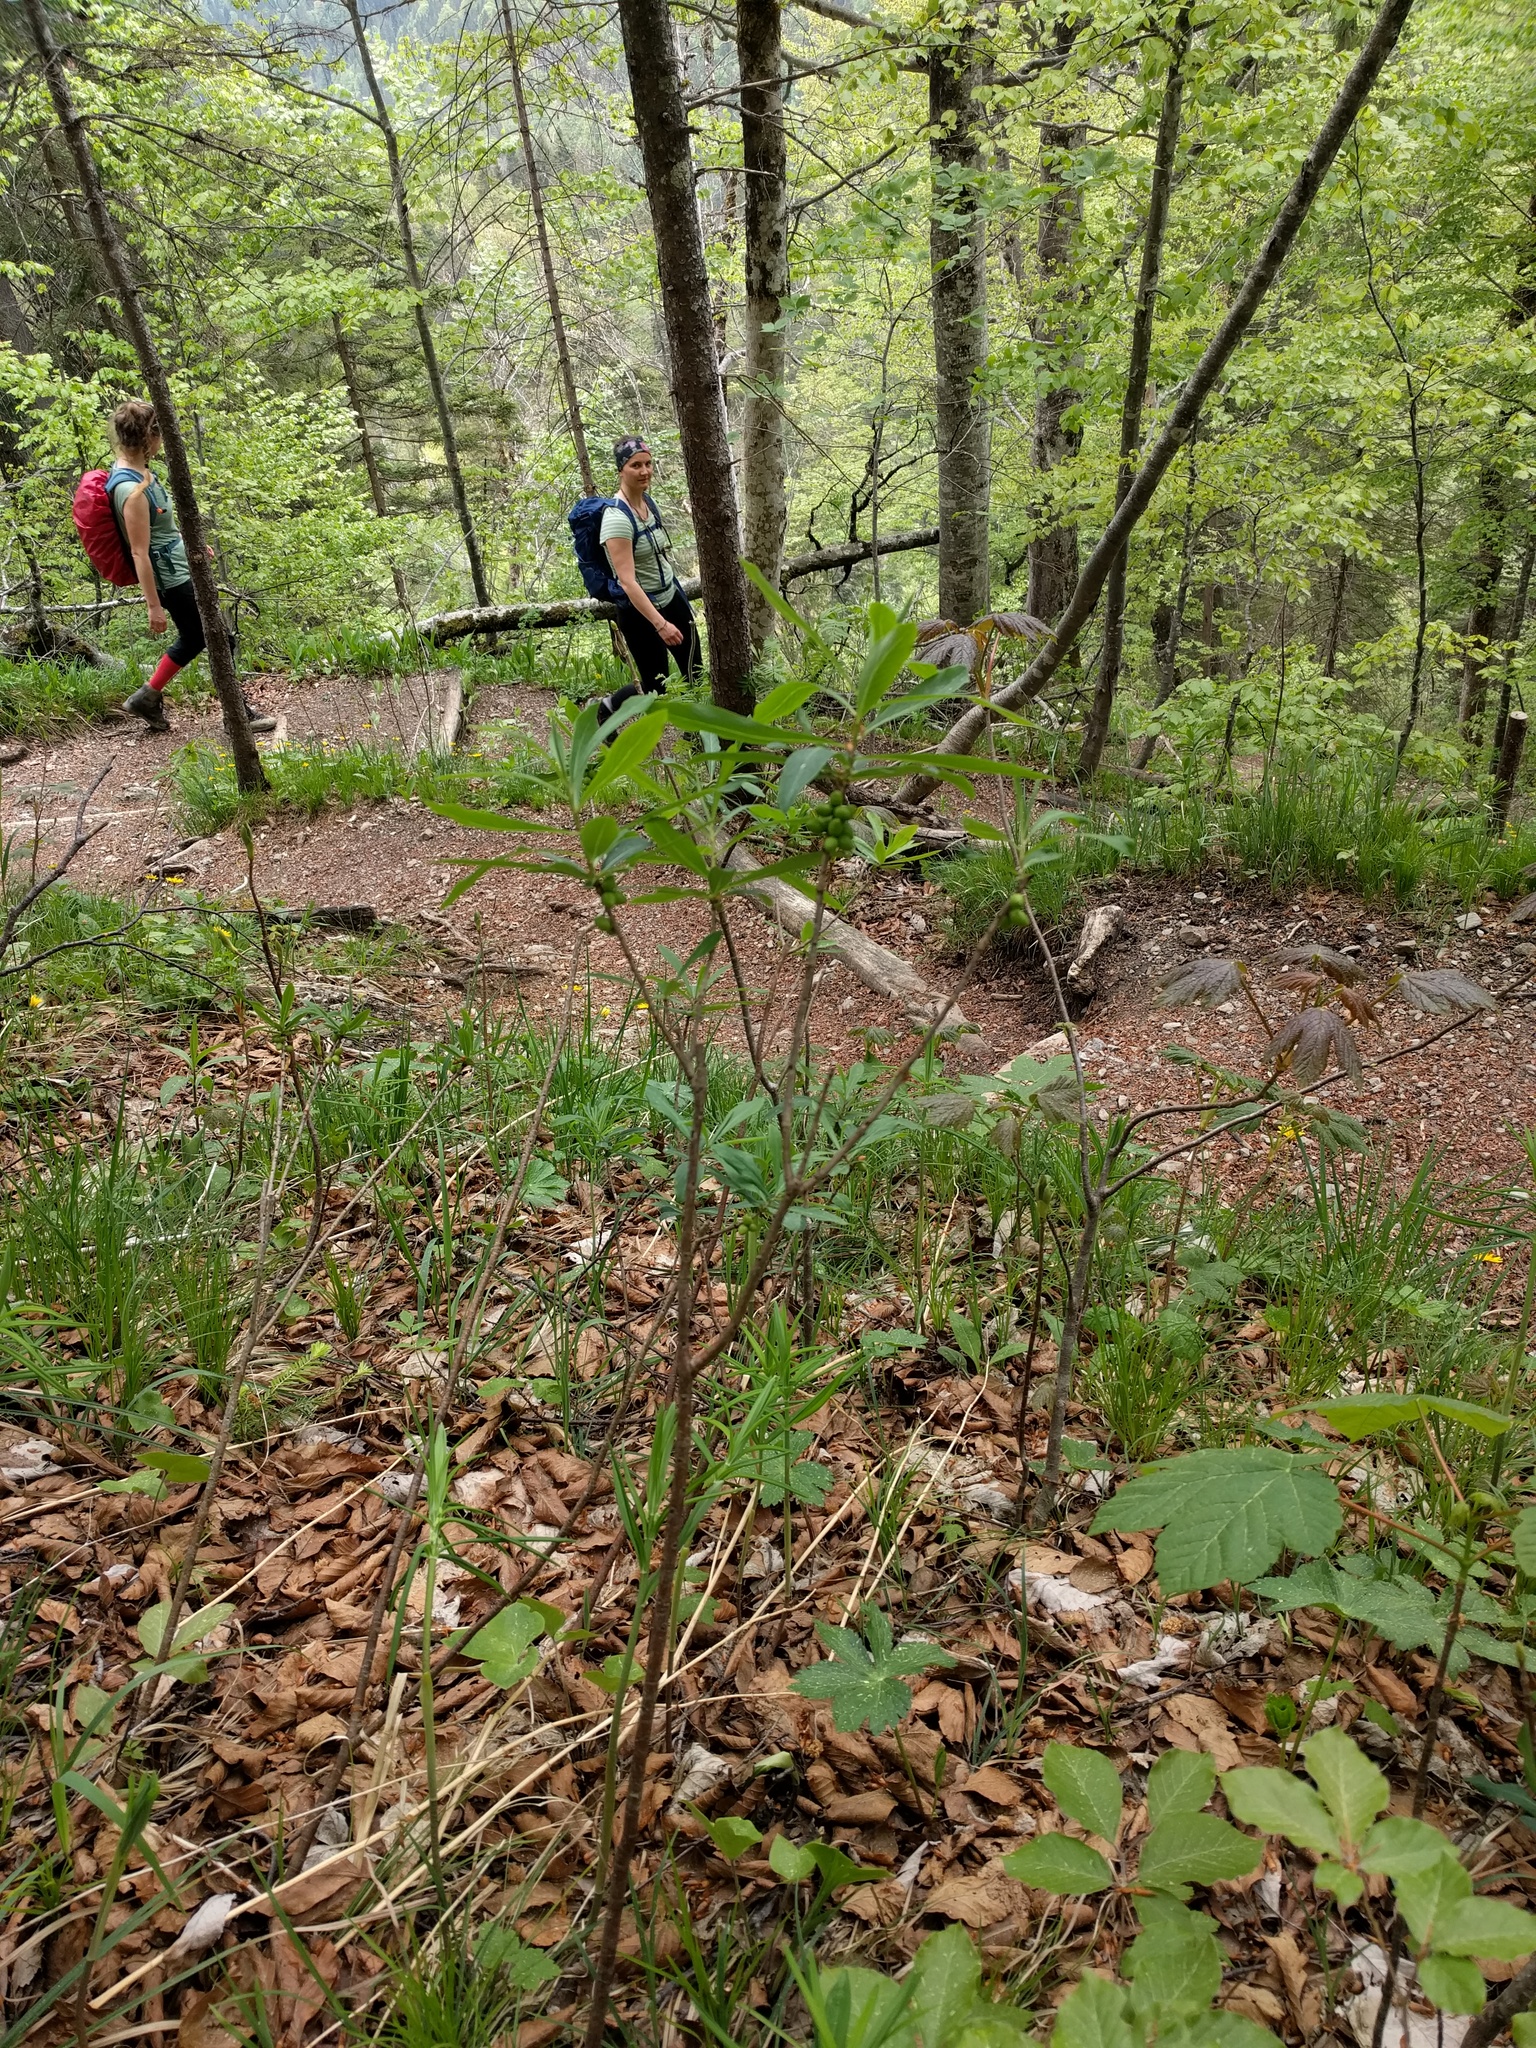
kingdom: Plantae
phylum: Tracheophyta
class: Magnoliopsida
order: Malvales
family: Thymelaeaceae
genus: Daphne
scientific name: Daphne mezereum
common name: Mezereon
